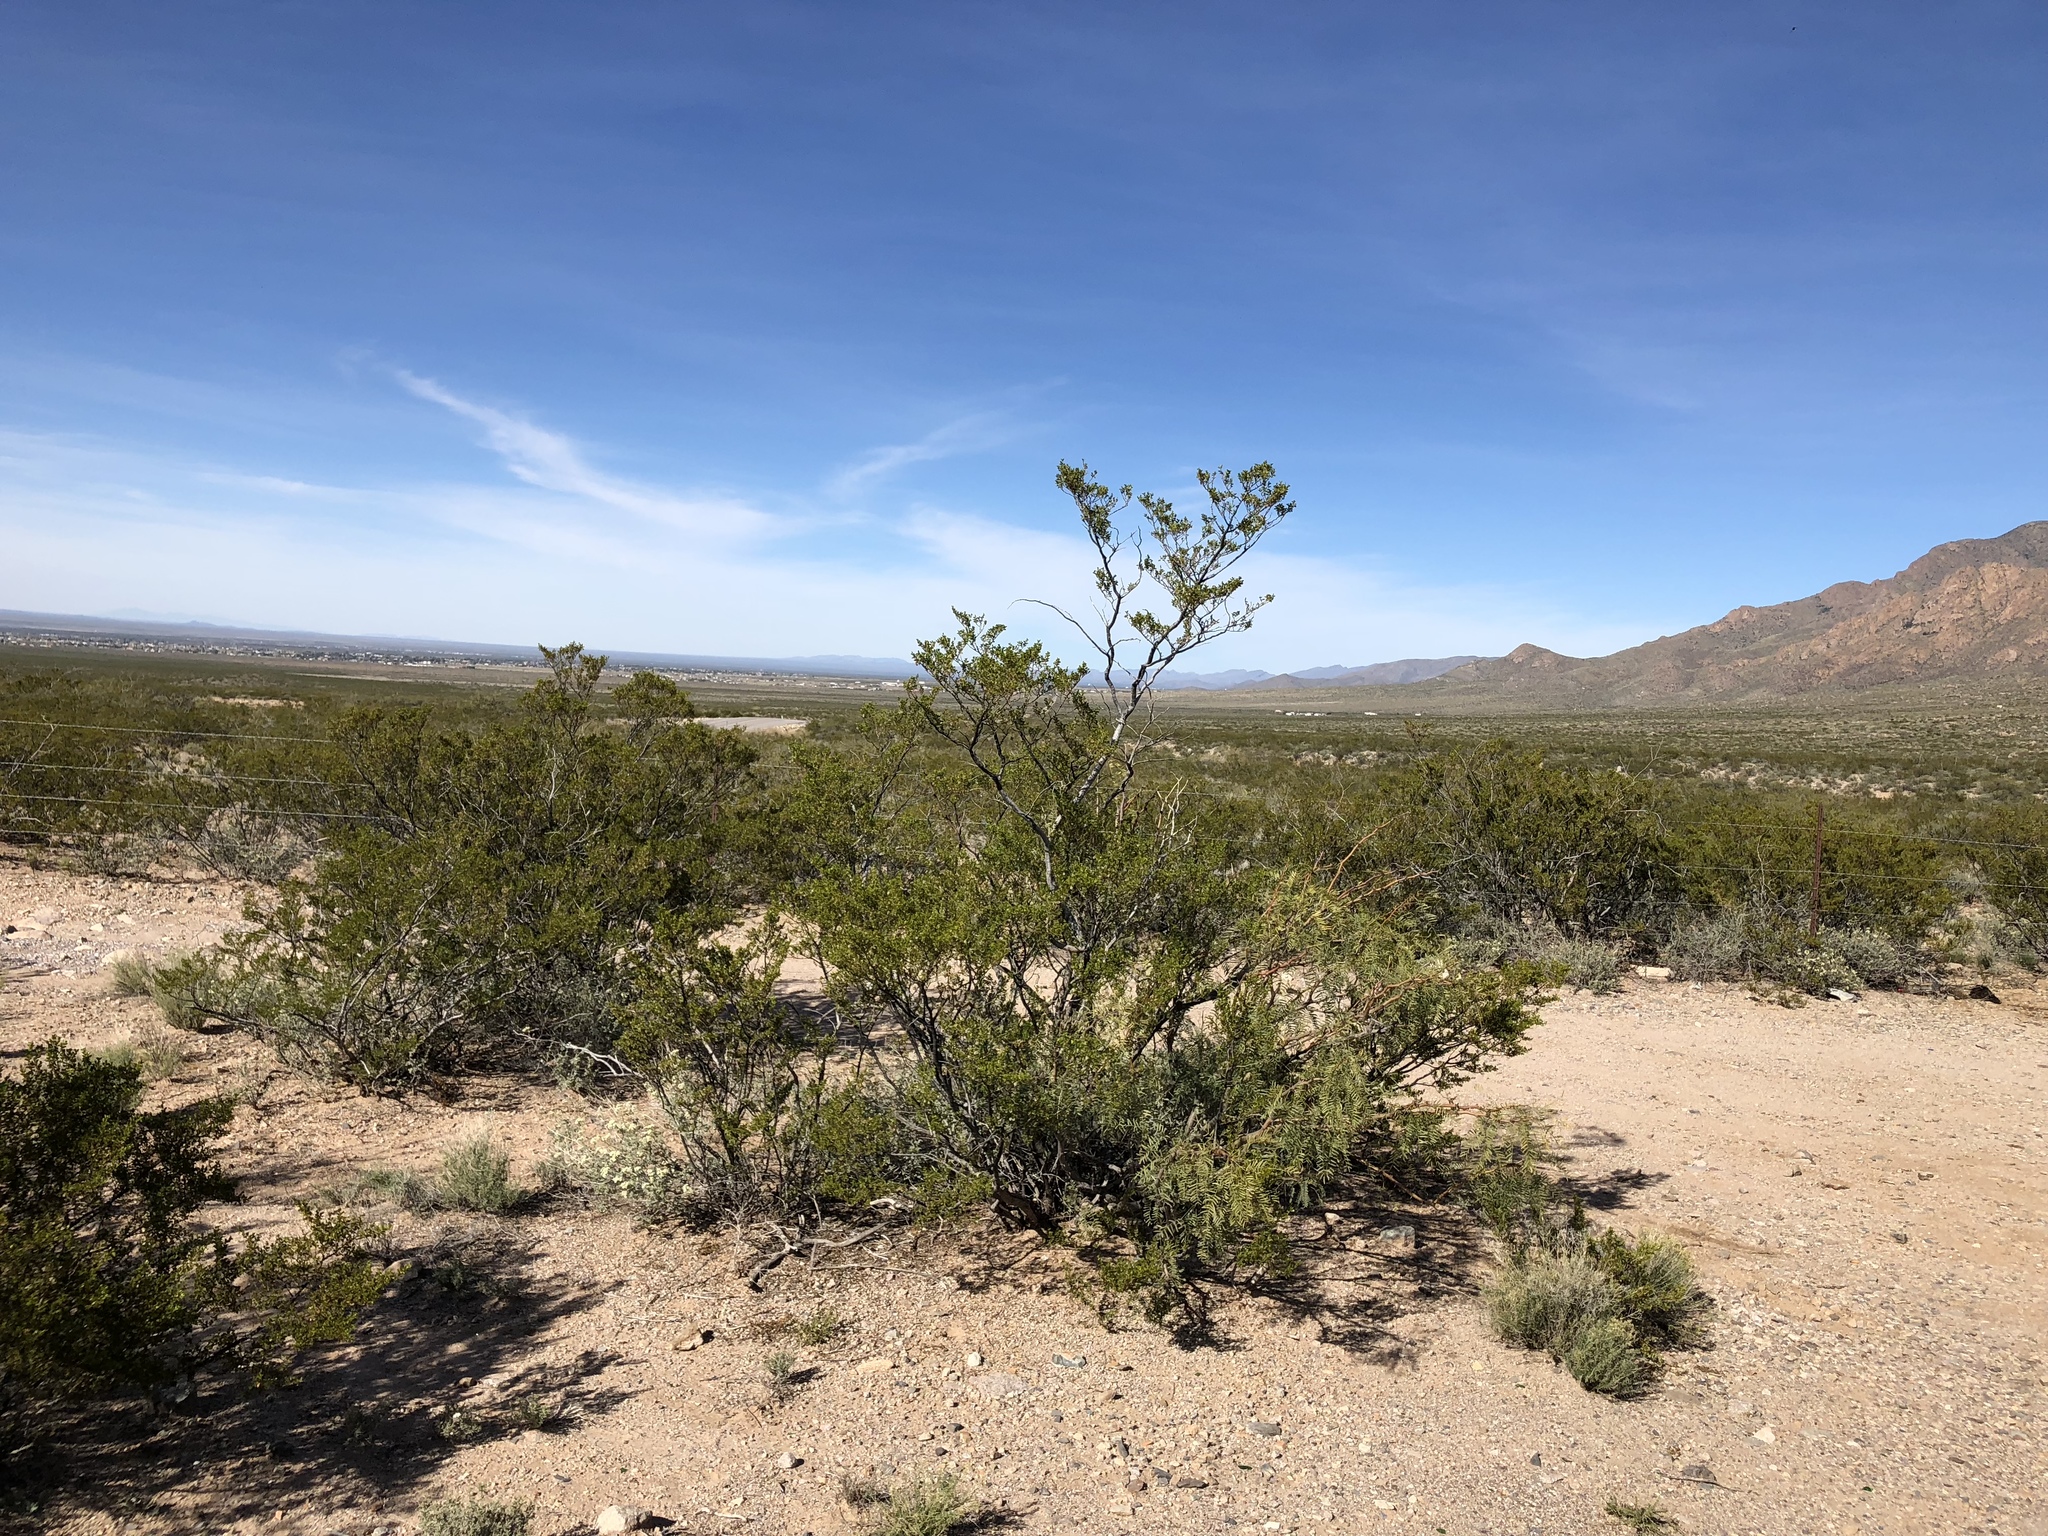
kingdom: Plantae
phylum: Tracheophyta
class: Magnoliopsida
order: Zygophyllales
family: Zygophyllaceae
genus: Larrea
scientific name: Larrea tridentata
